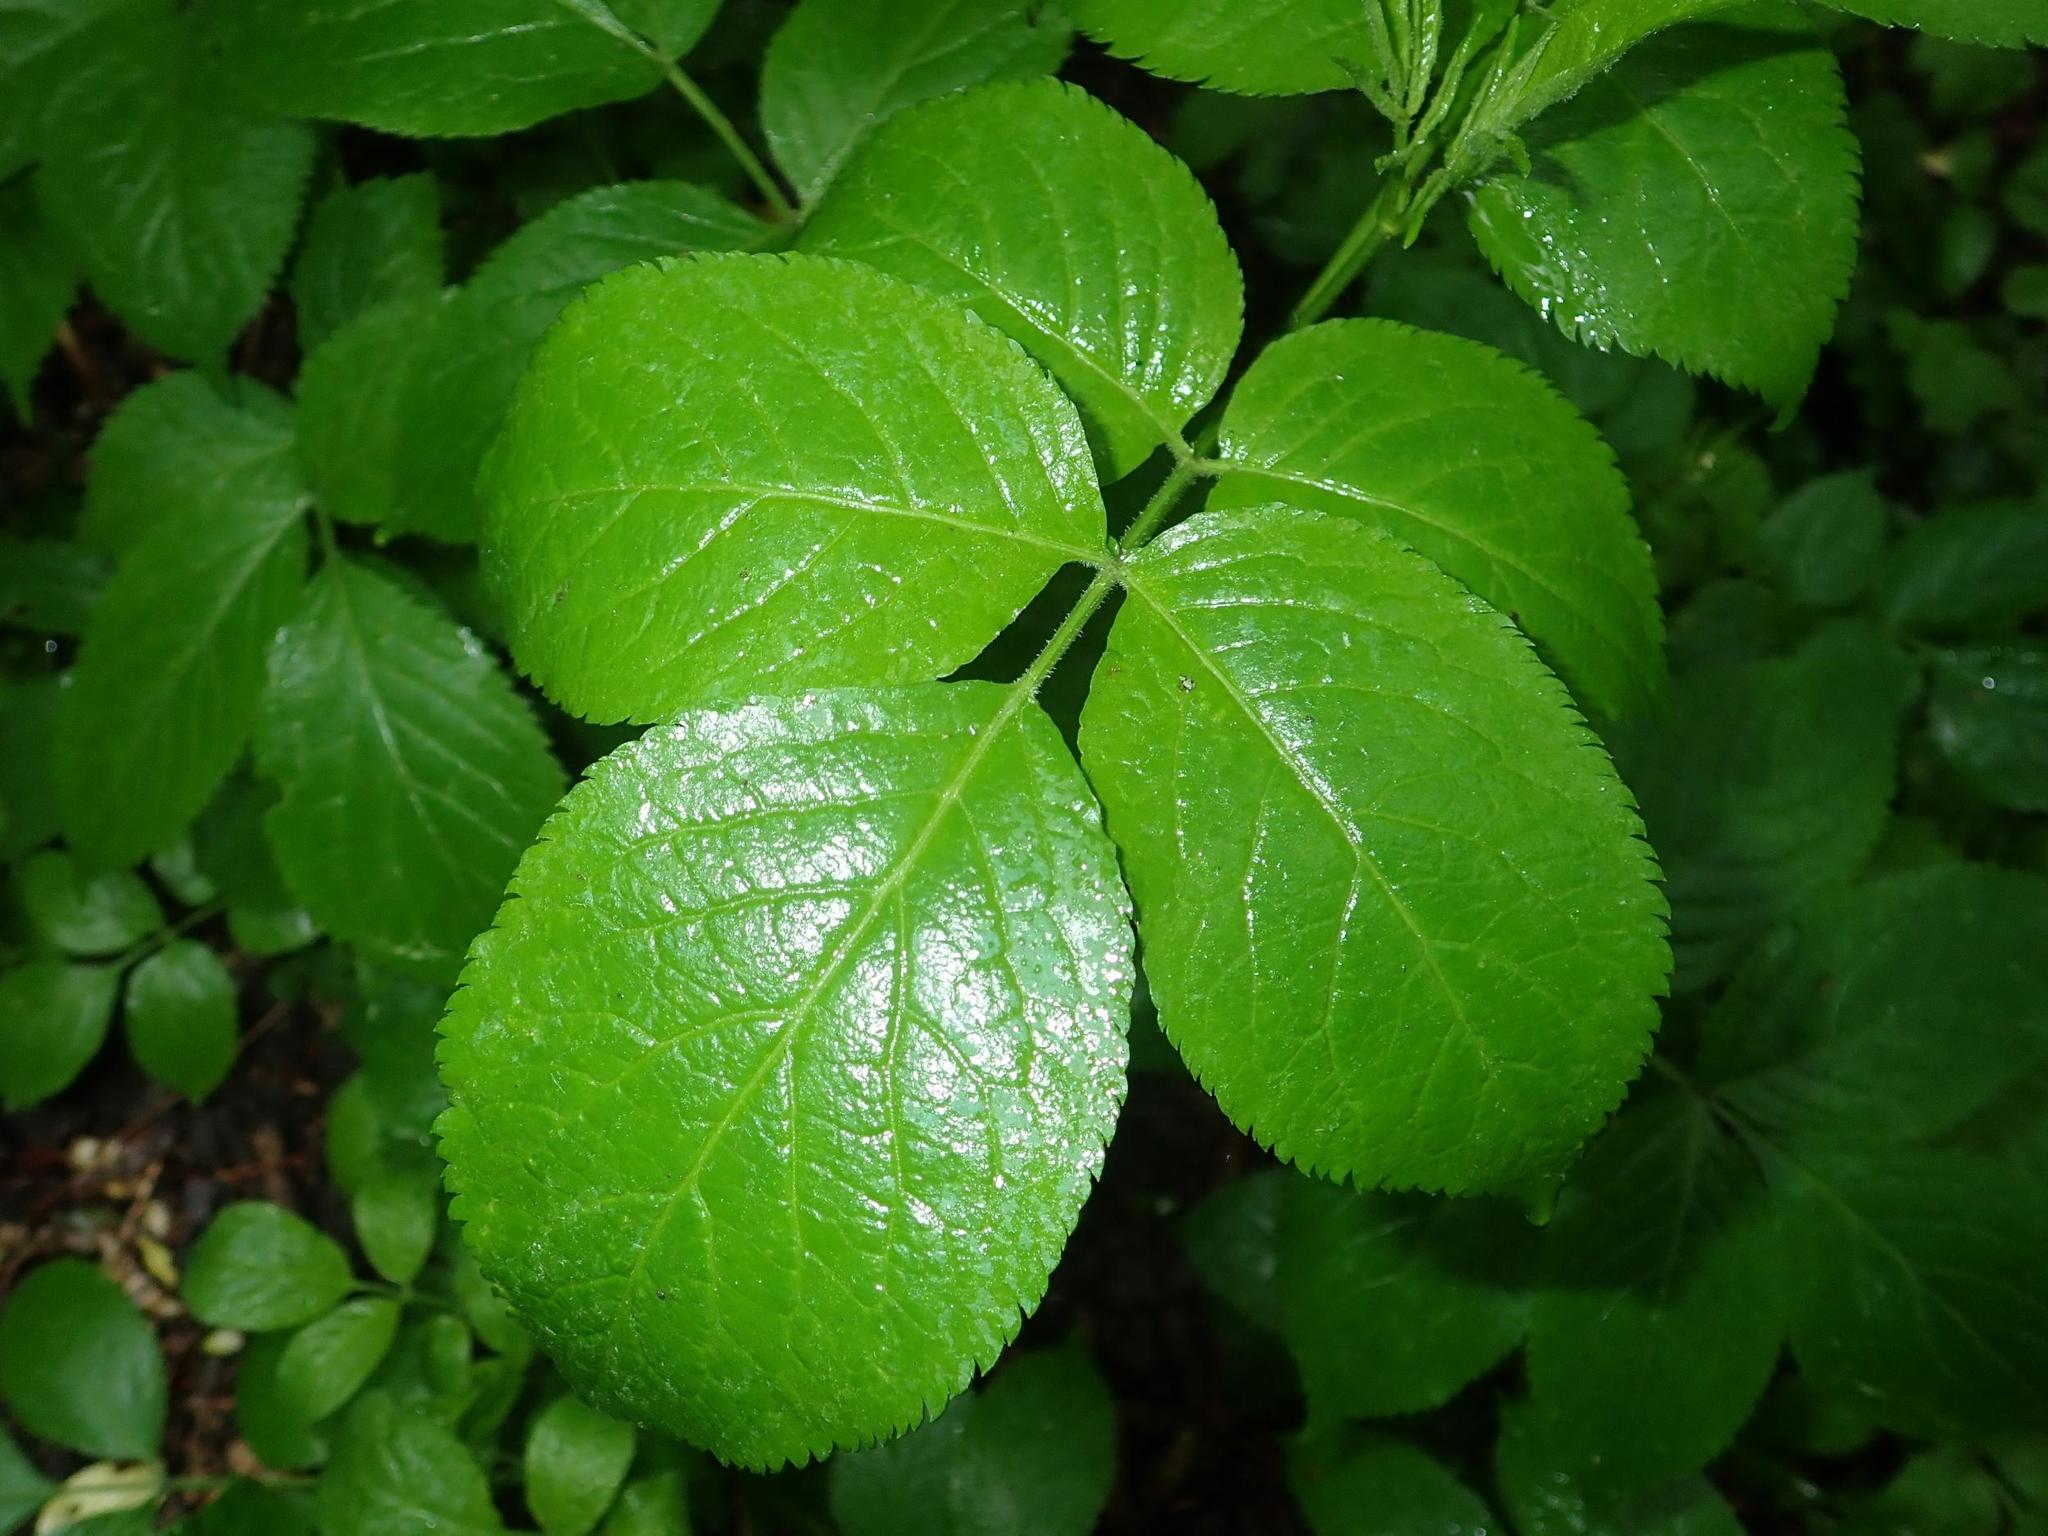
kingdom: Plantae
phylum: Tracheophyta
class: Magnoliopsida
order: Dipsacales
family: Viburnaceae
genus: Sambucus
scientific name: Sambucus nigra
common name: Elder
